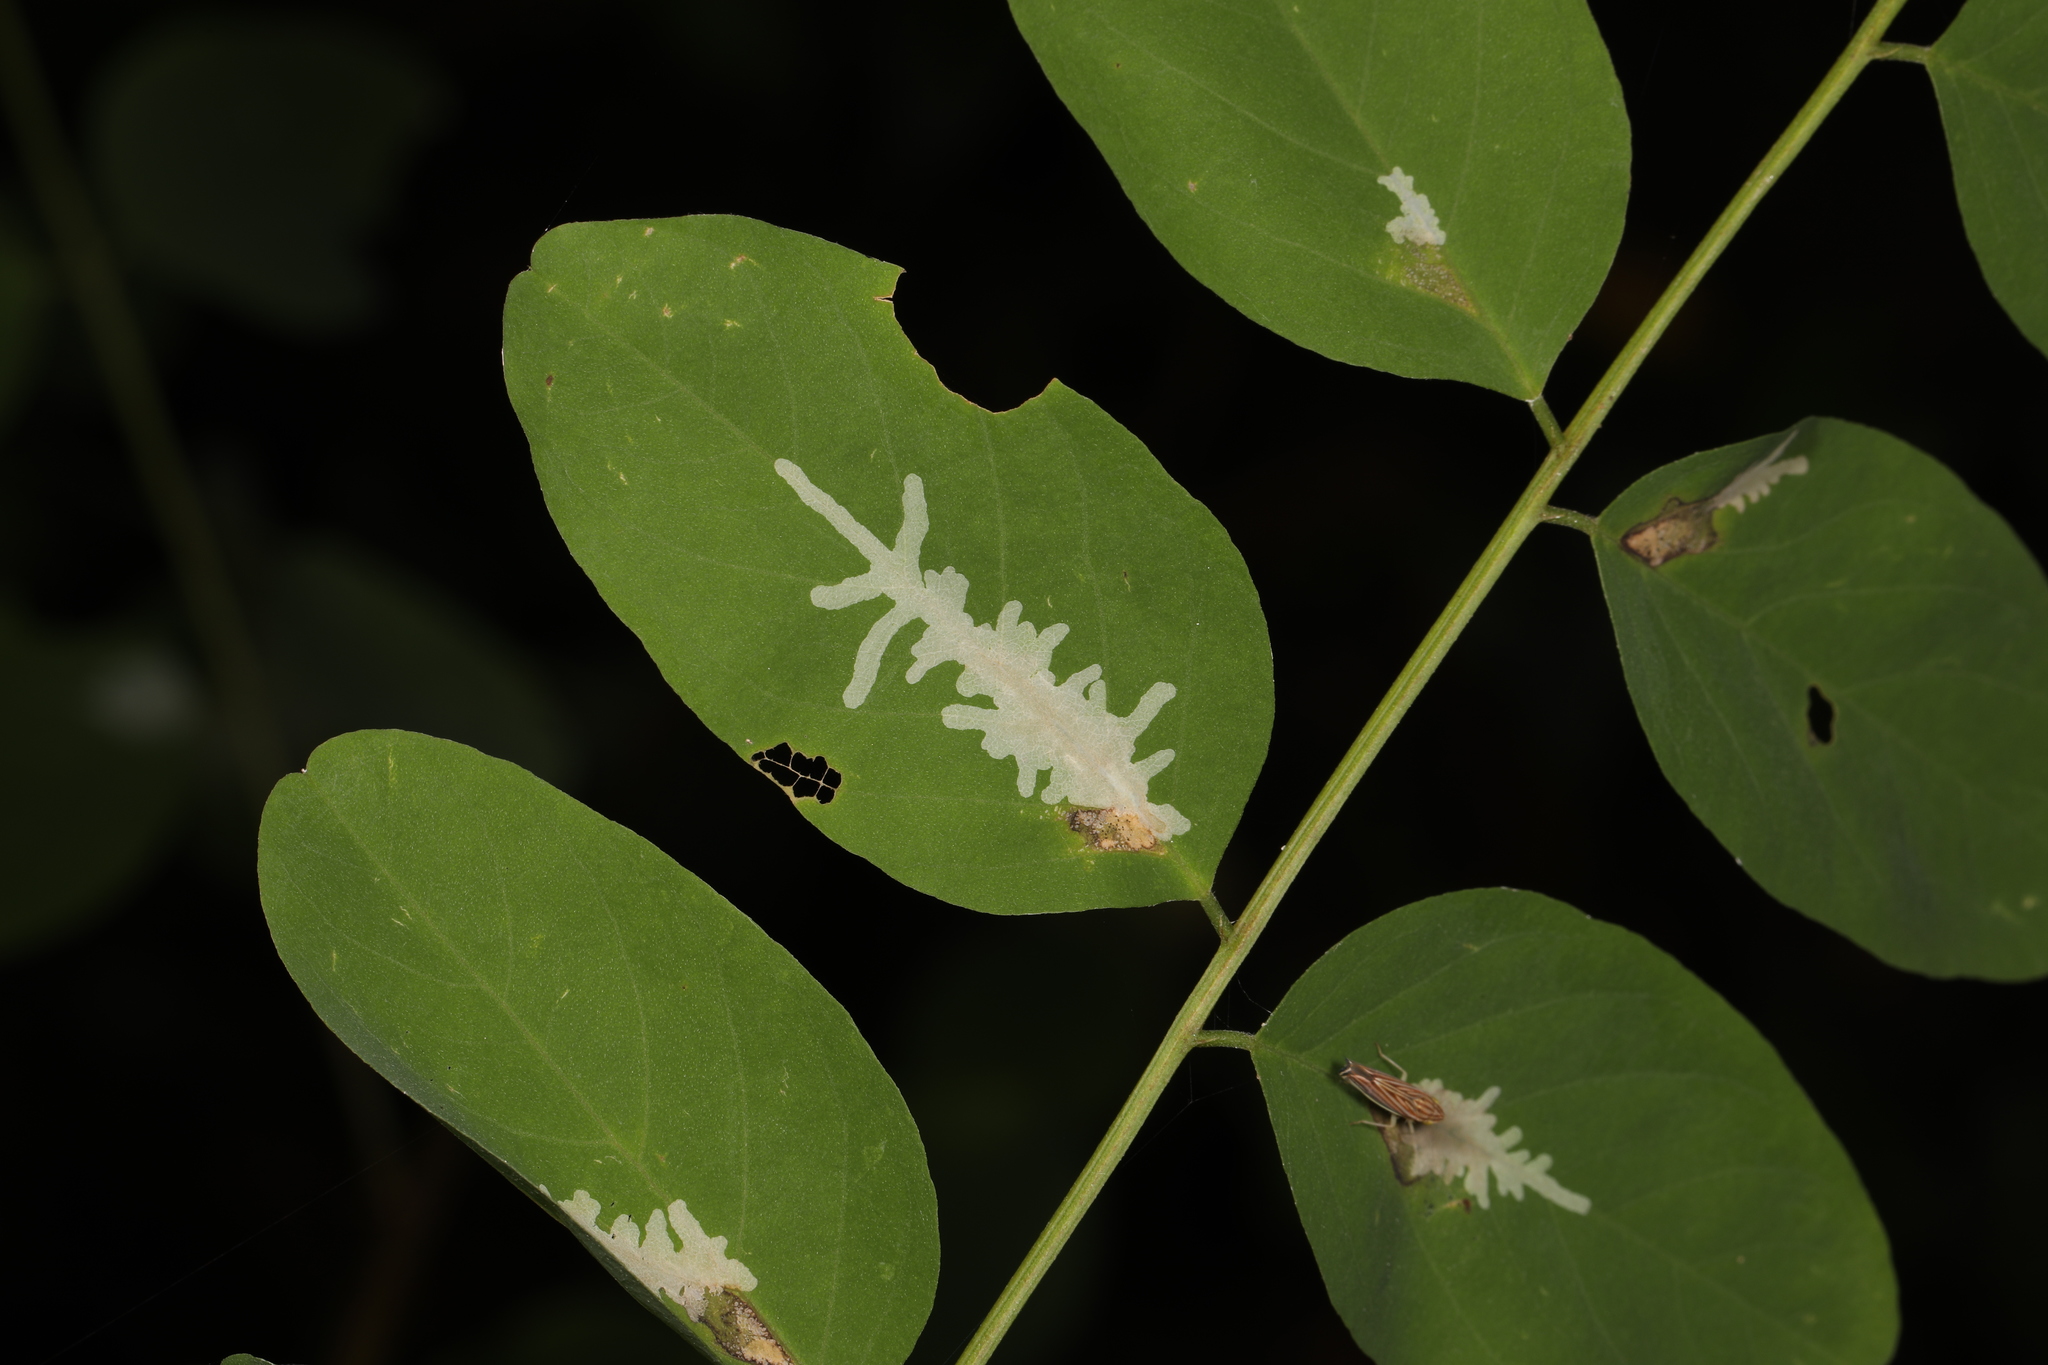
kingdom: Animalia
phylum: Arthropoda
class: Insecta
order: Lepidoptera
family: Gracillariidae
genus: Parectopa
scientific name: Parectopa robiniella
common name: Locust digitate leafminer
